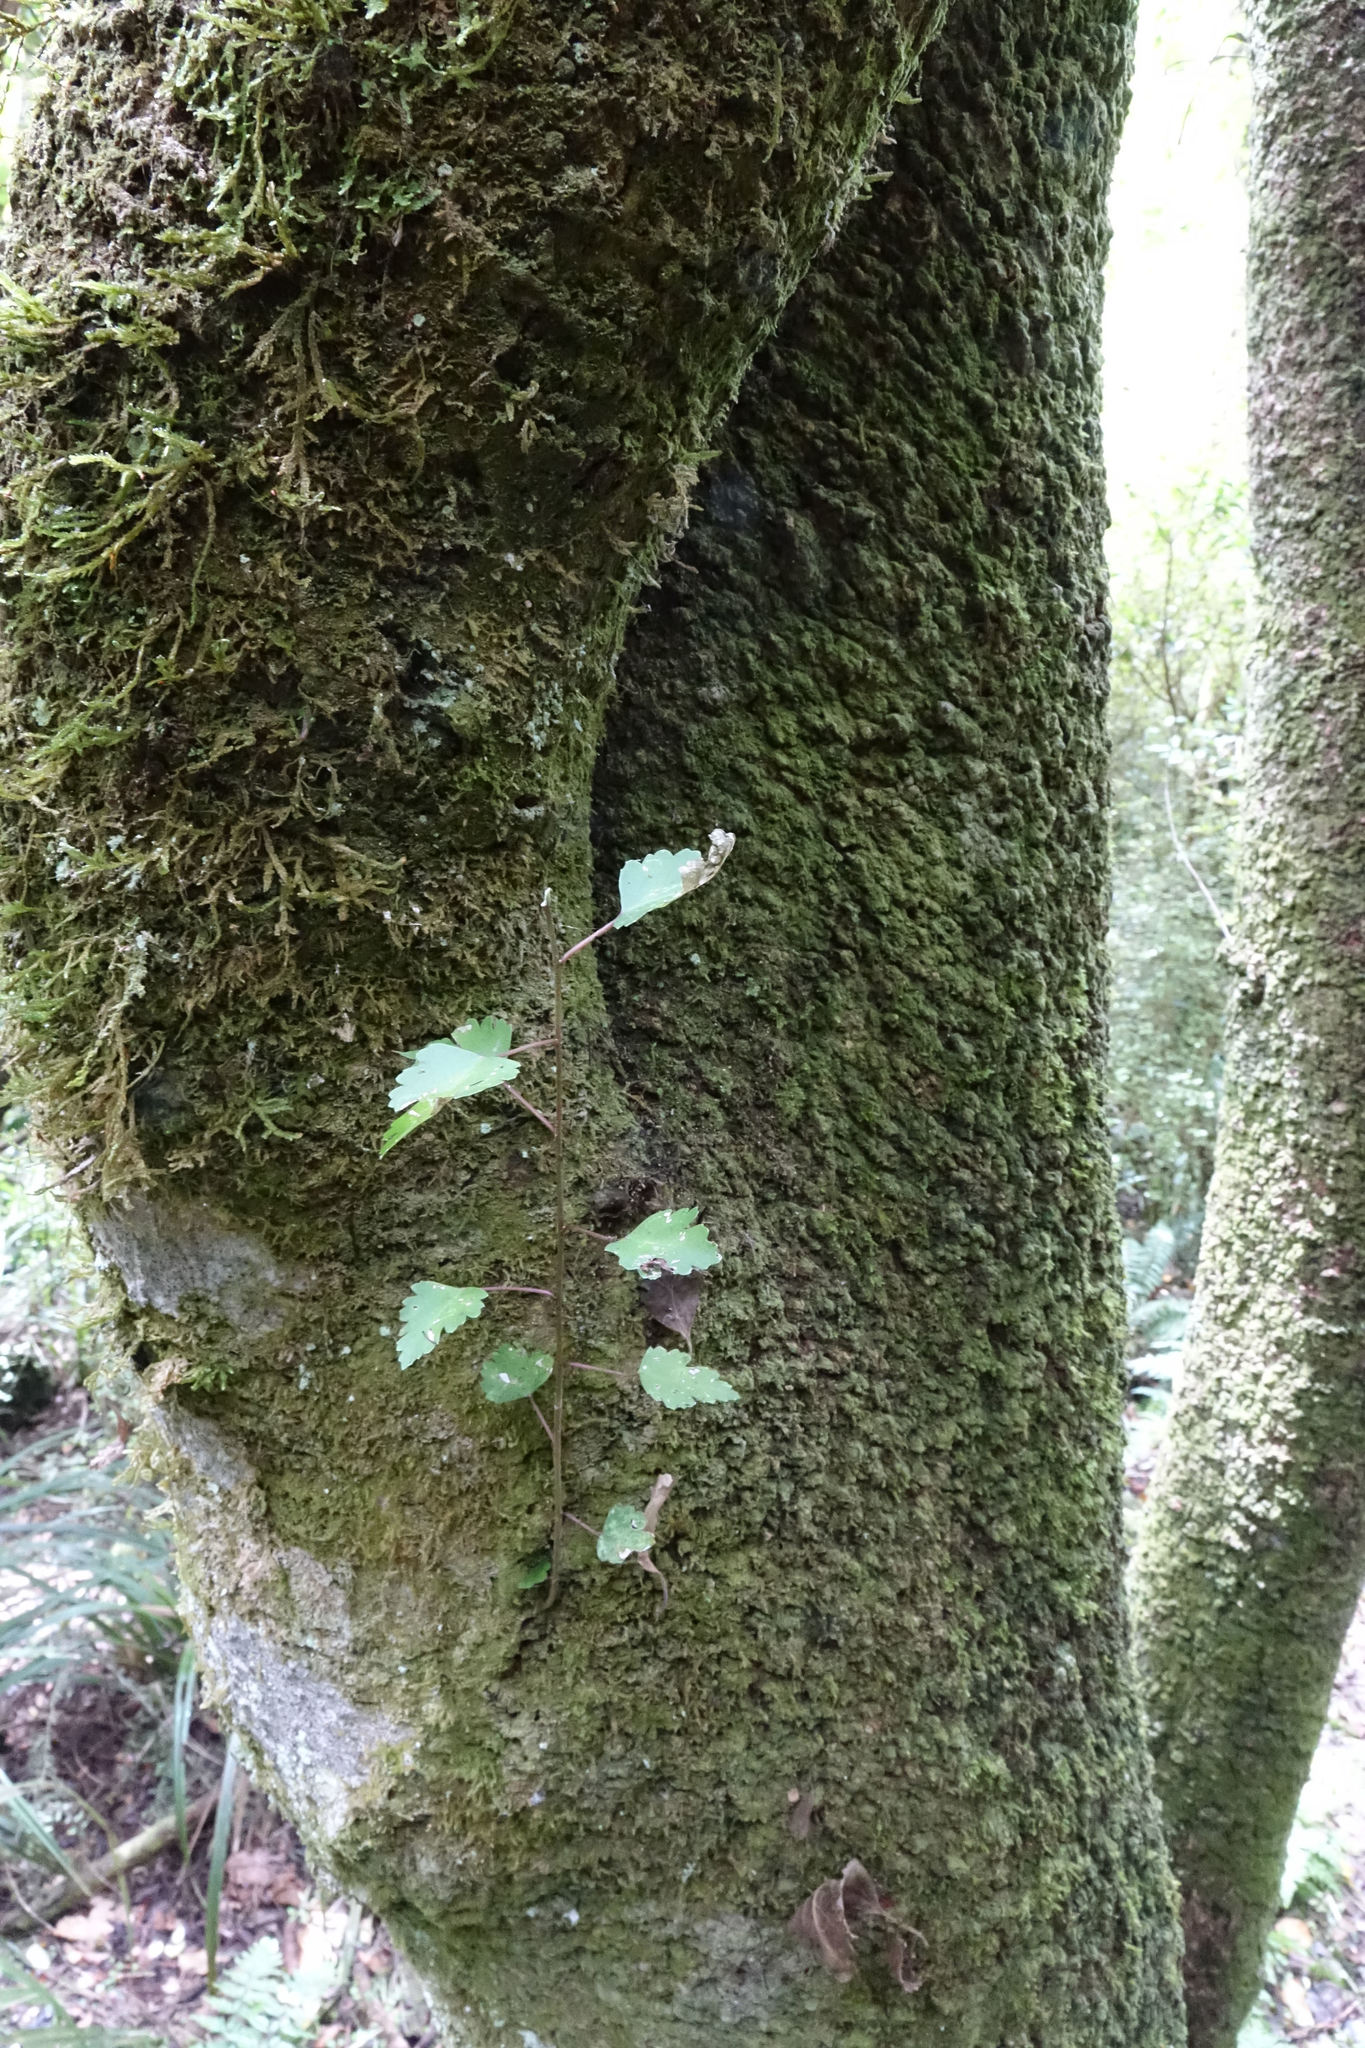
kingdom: Plantae
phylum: Tracheophyta
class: Magnoliopsida
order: Malvales
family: Malvaceae
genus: Plagianthus
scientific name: Plagianthus regius
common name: Manatu
